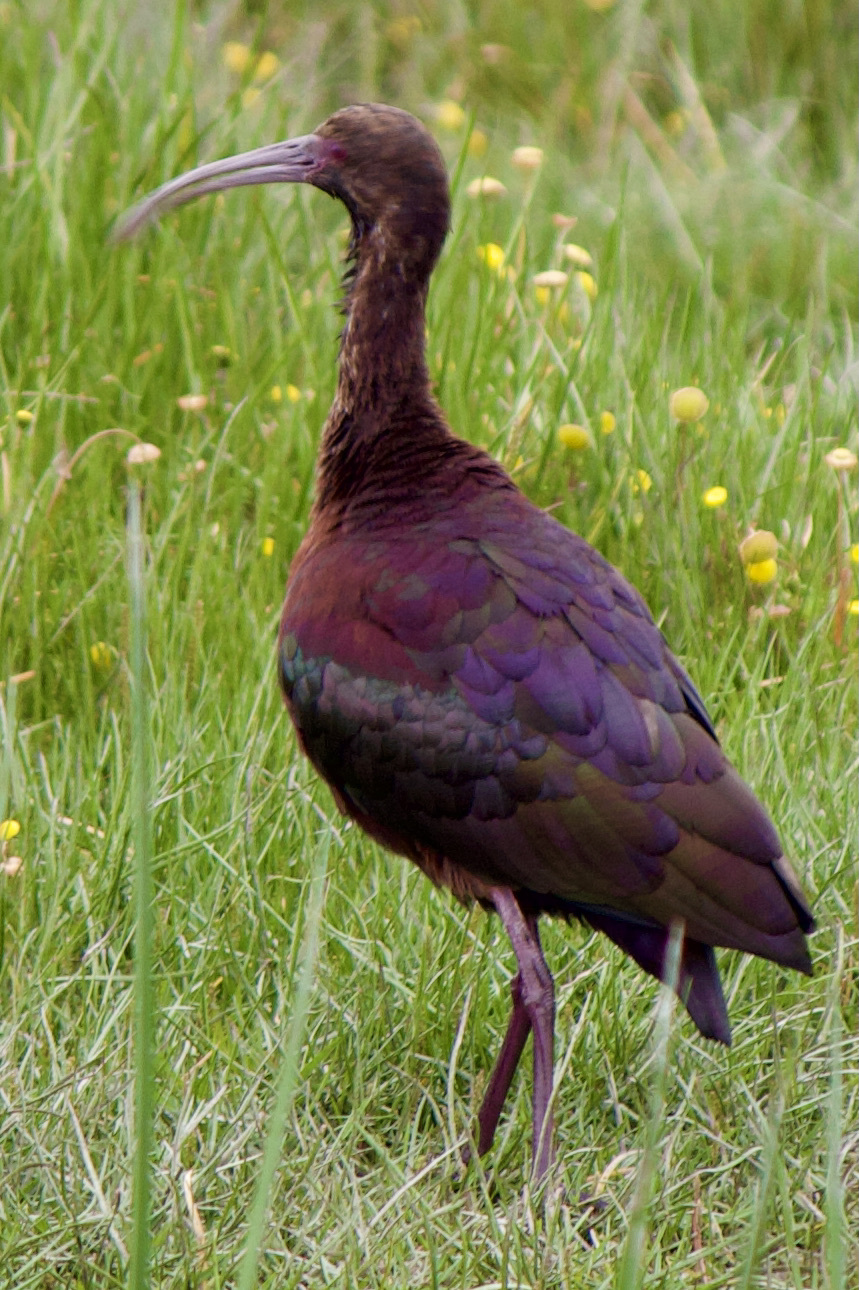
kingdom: Animalia
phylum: Chordata
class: Aves
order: Pelecaniformes
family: Threskiornithidae
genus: Plegadis
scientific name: Plegadis chihi
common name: White-faced ibis
